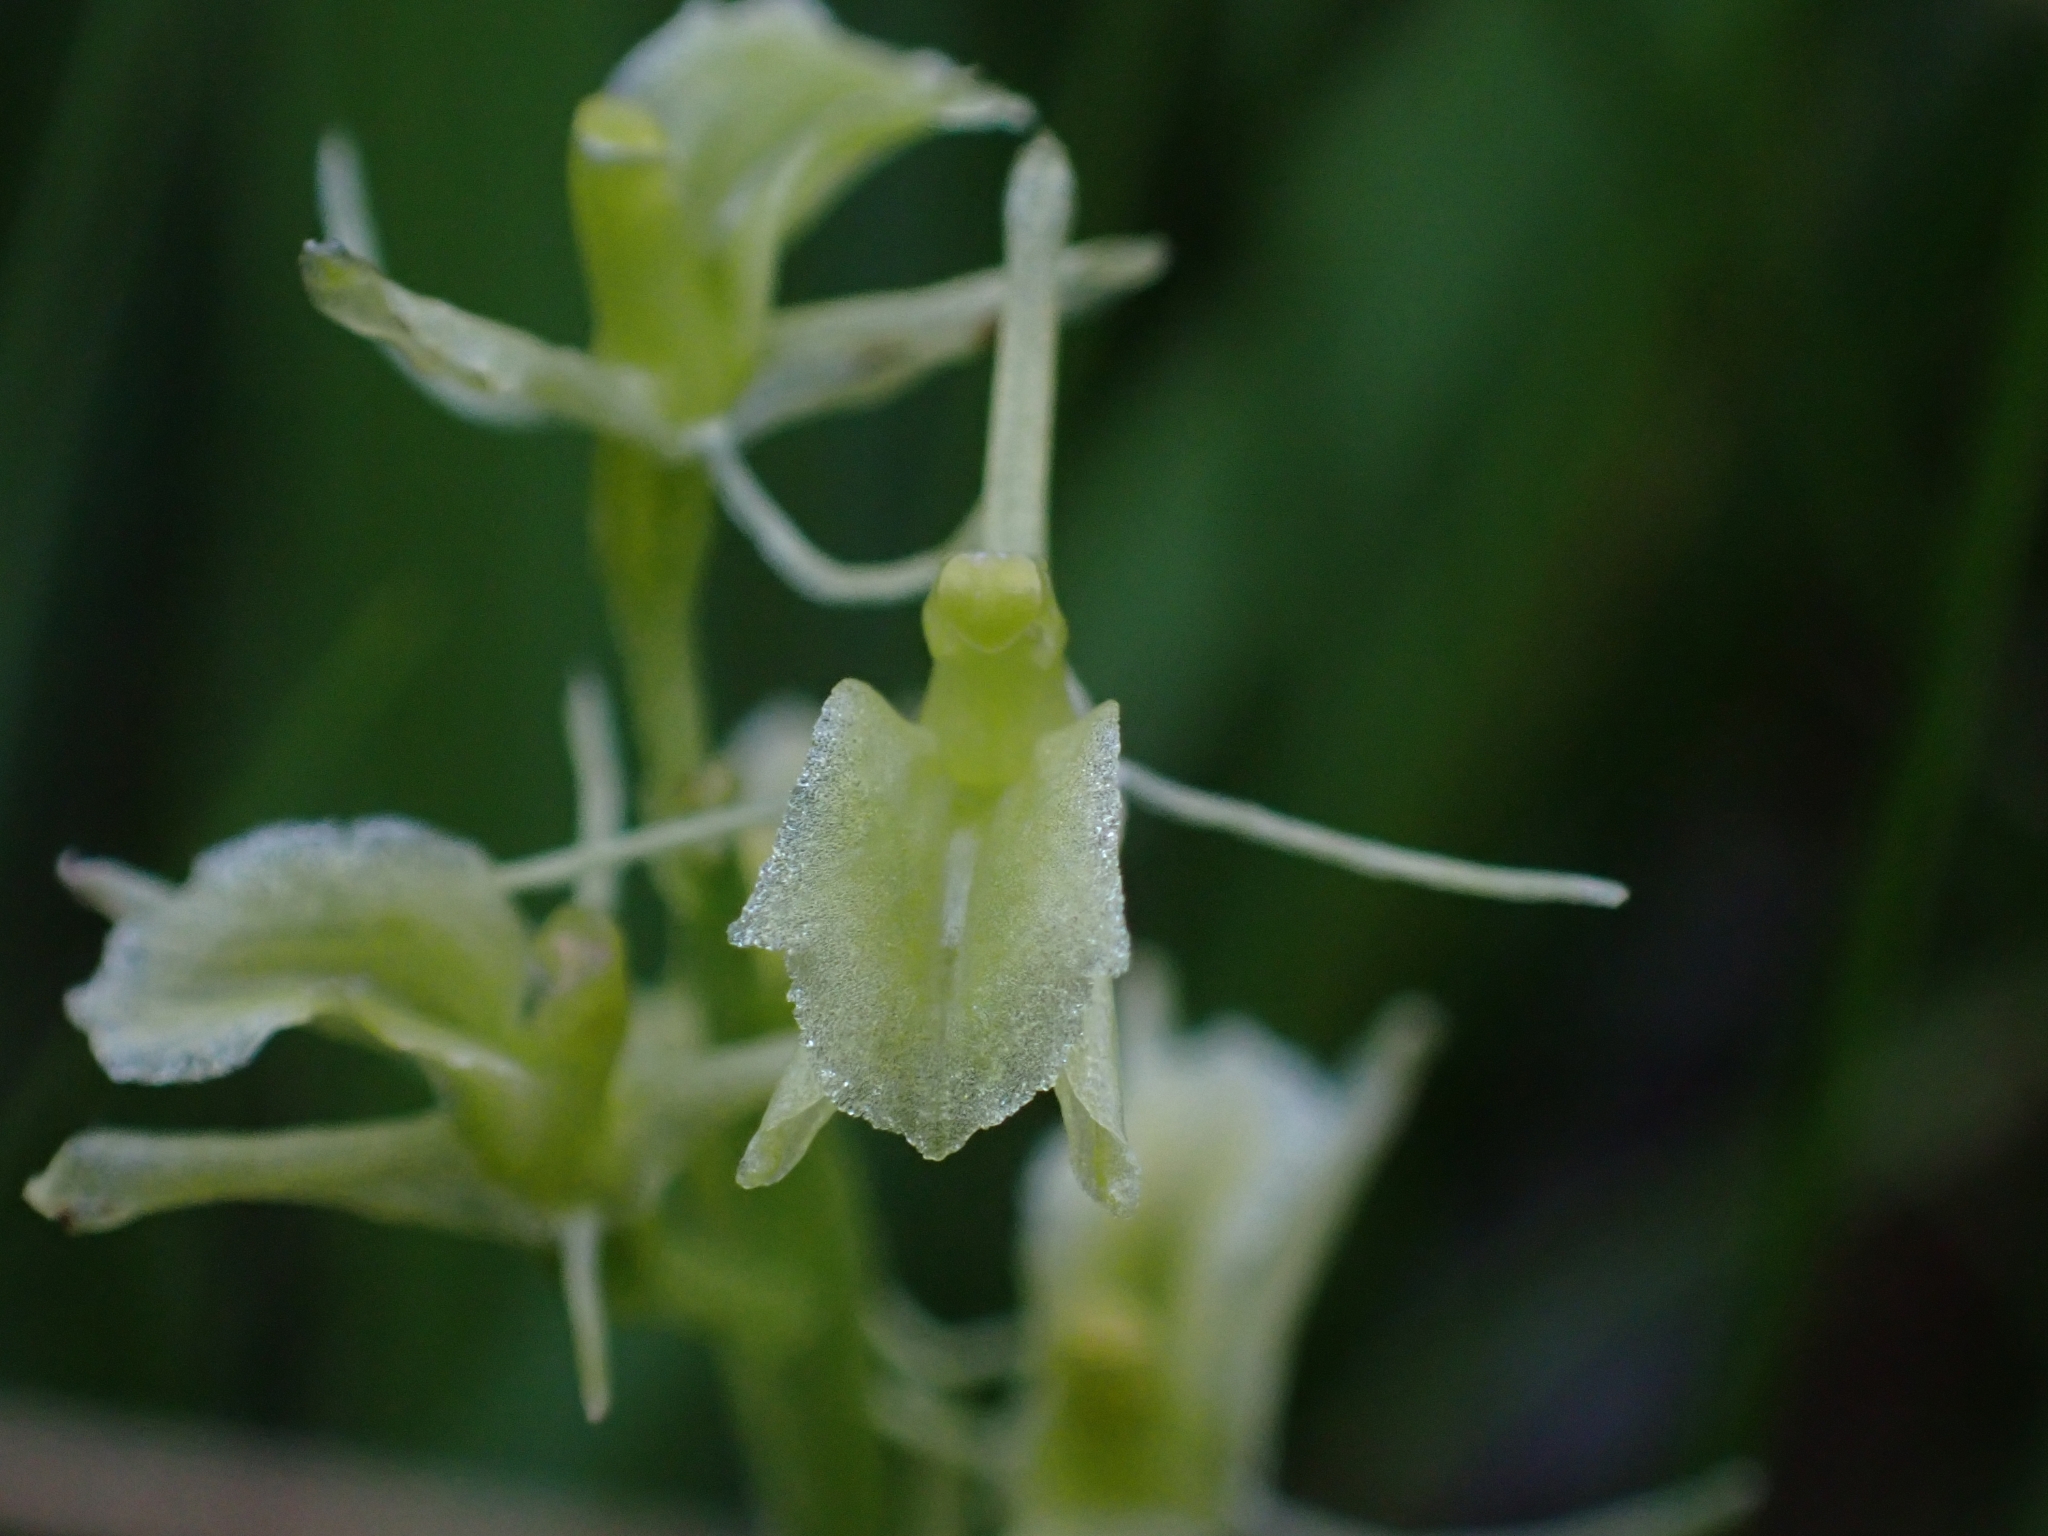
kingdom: Animalia
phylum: Arthropoda
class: Insecta
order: Coleoptera
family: Curculionidae
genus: Liparis
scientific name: Liparis loeselii
